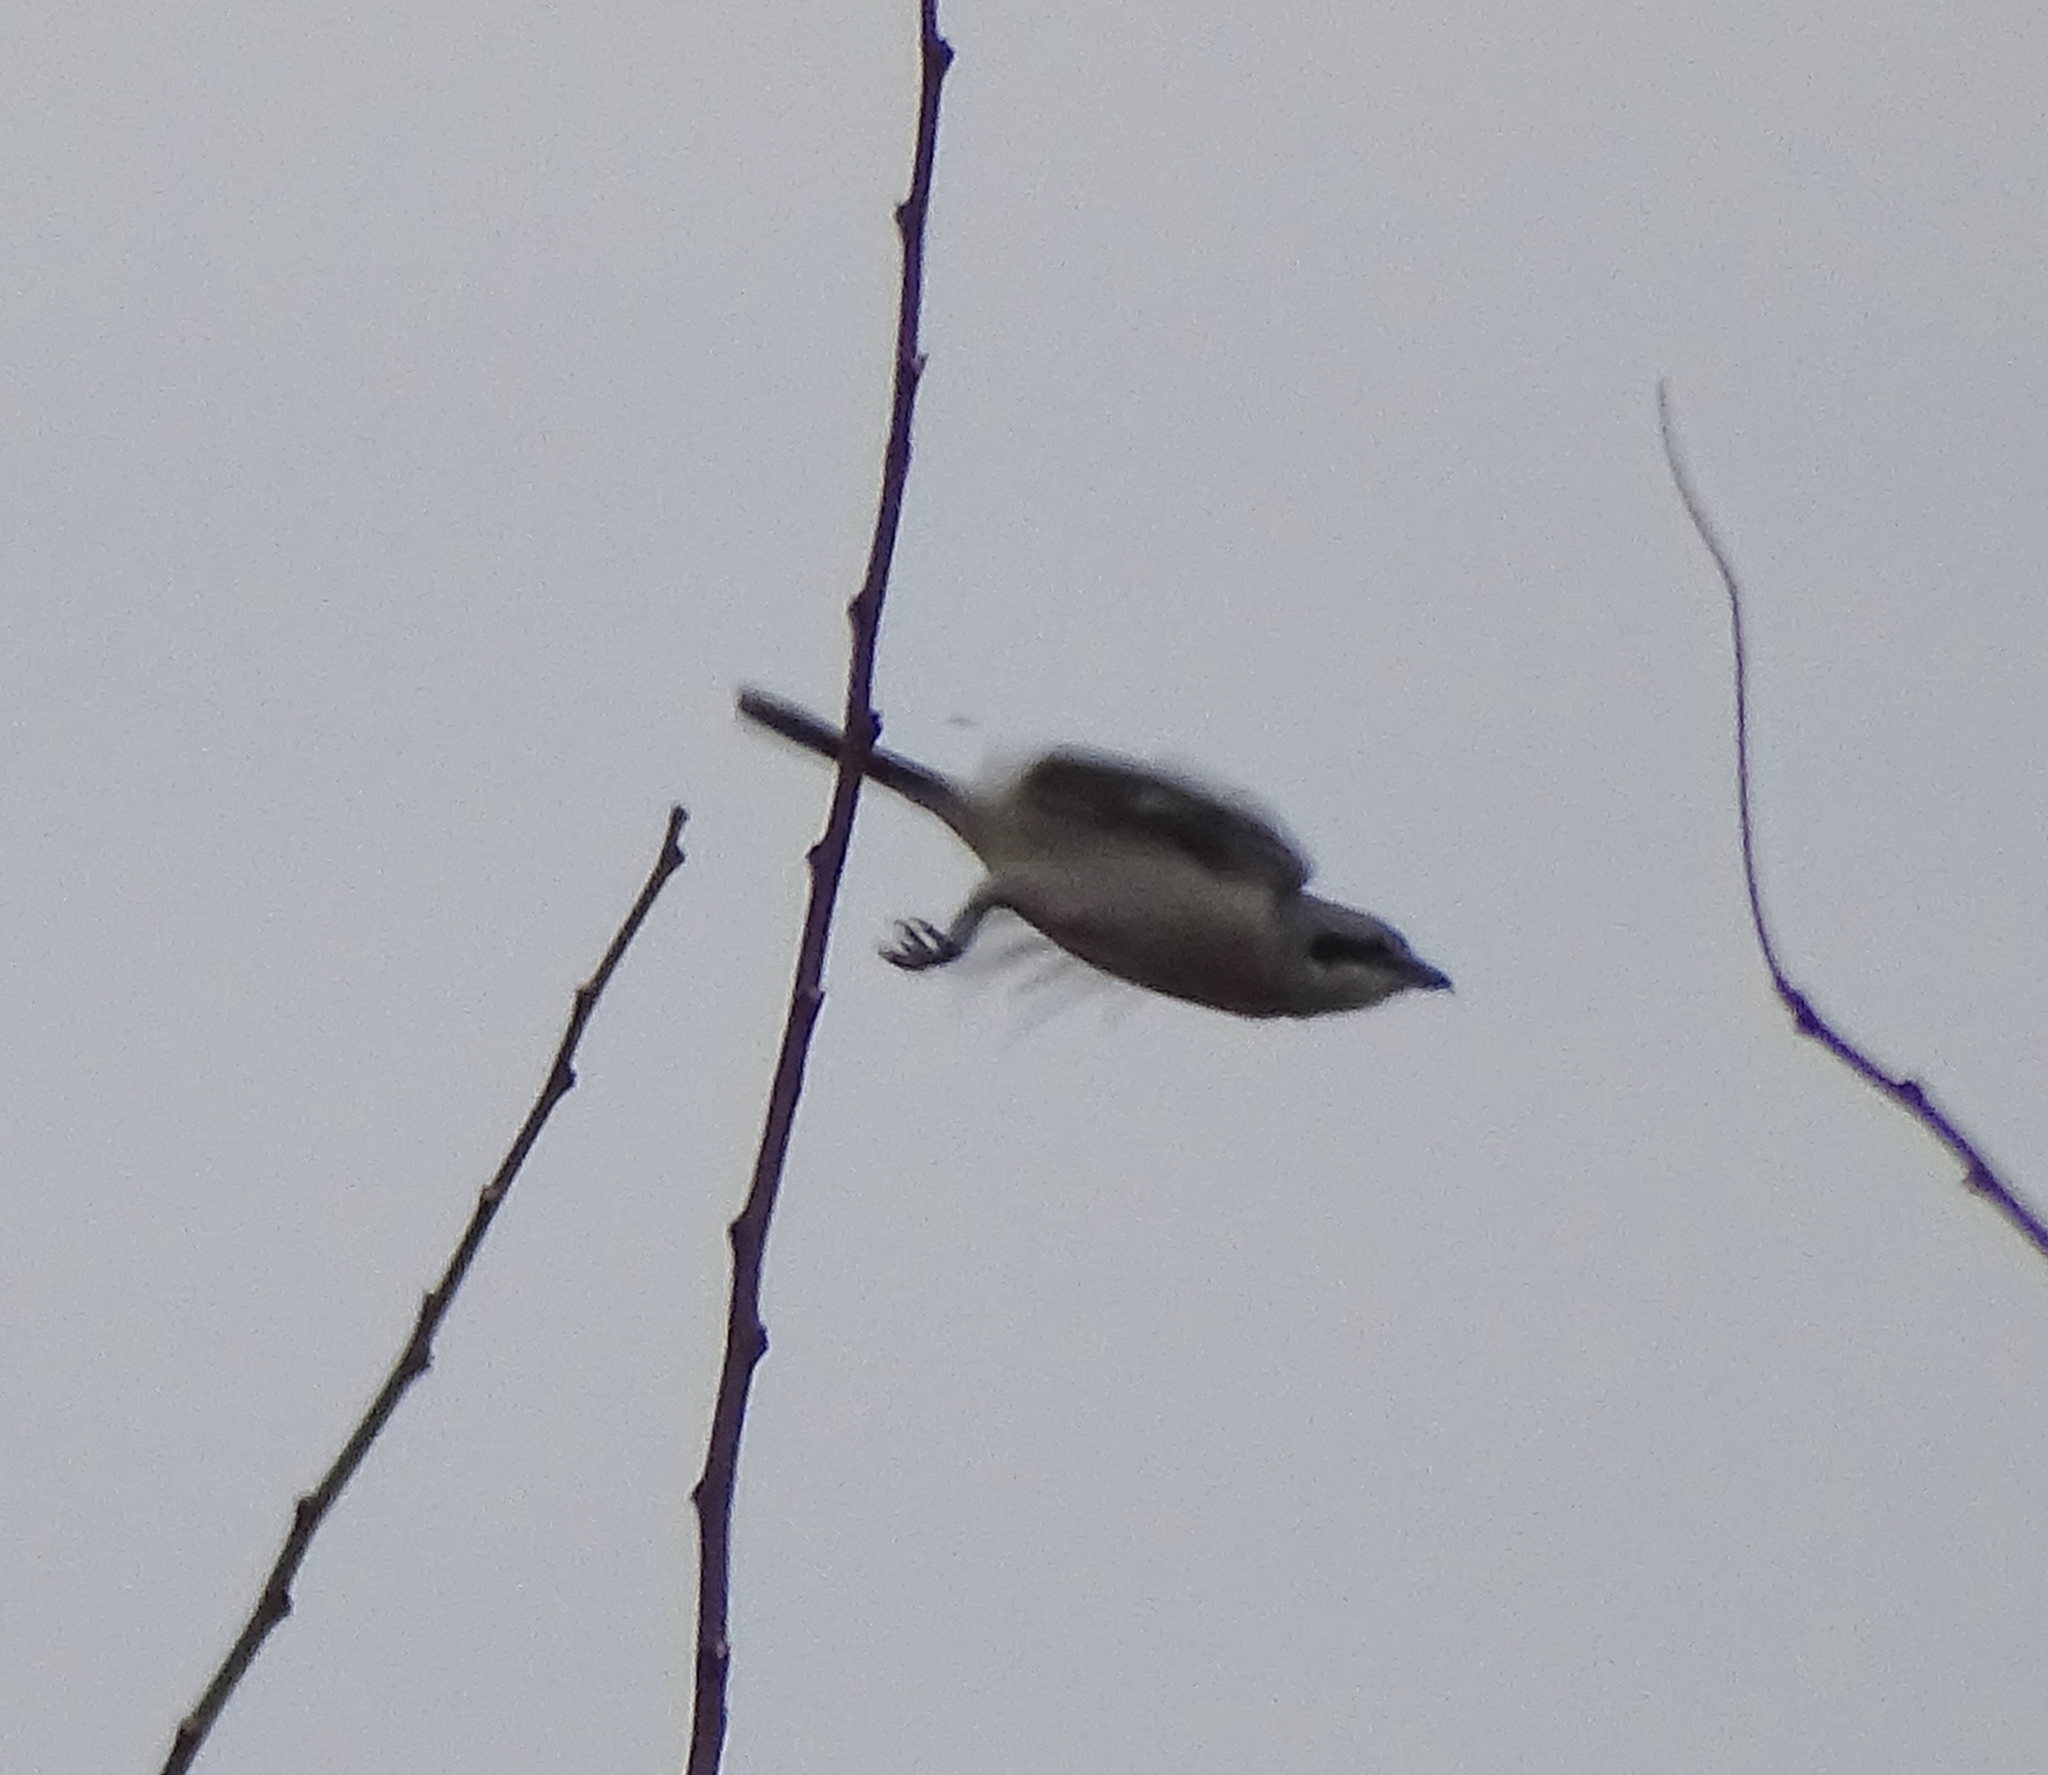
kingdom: Animalia
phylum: Chordata
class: Aves
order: Passeriformes
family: Laniidae
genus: Lanius
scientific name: Lanius borealis
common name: Northern shrike
